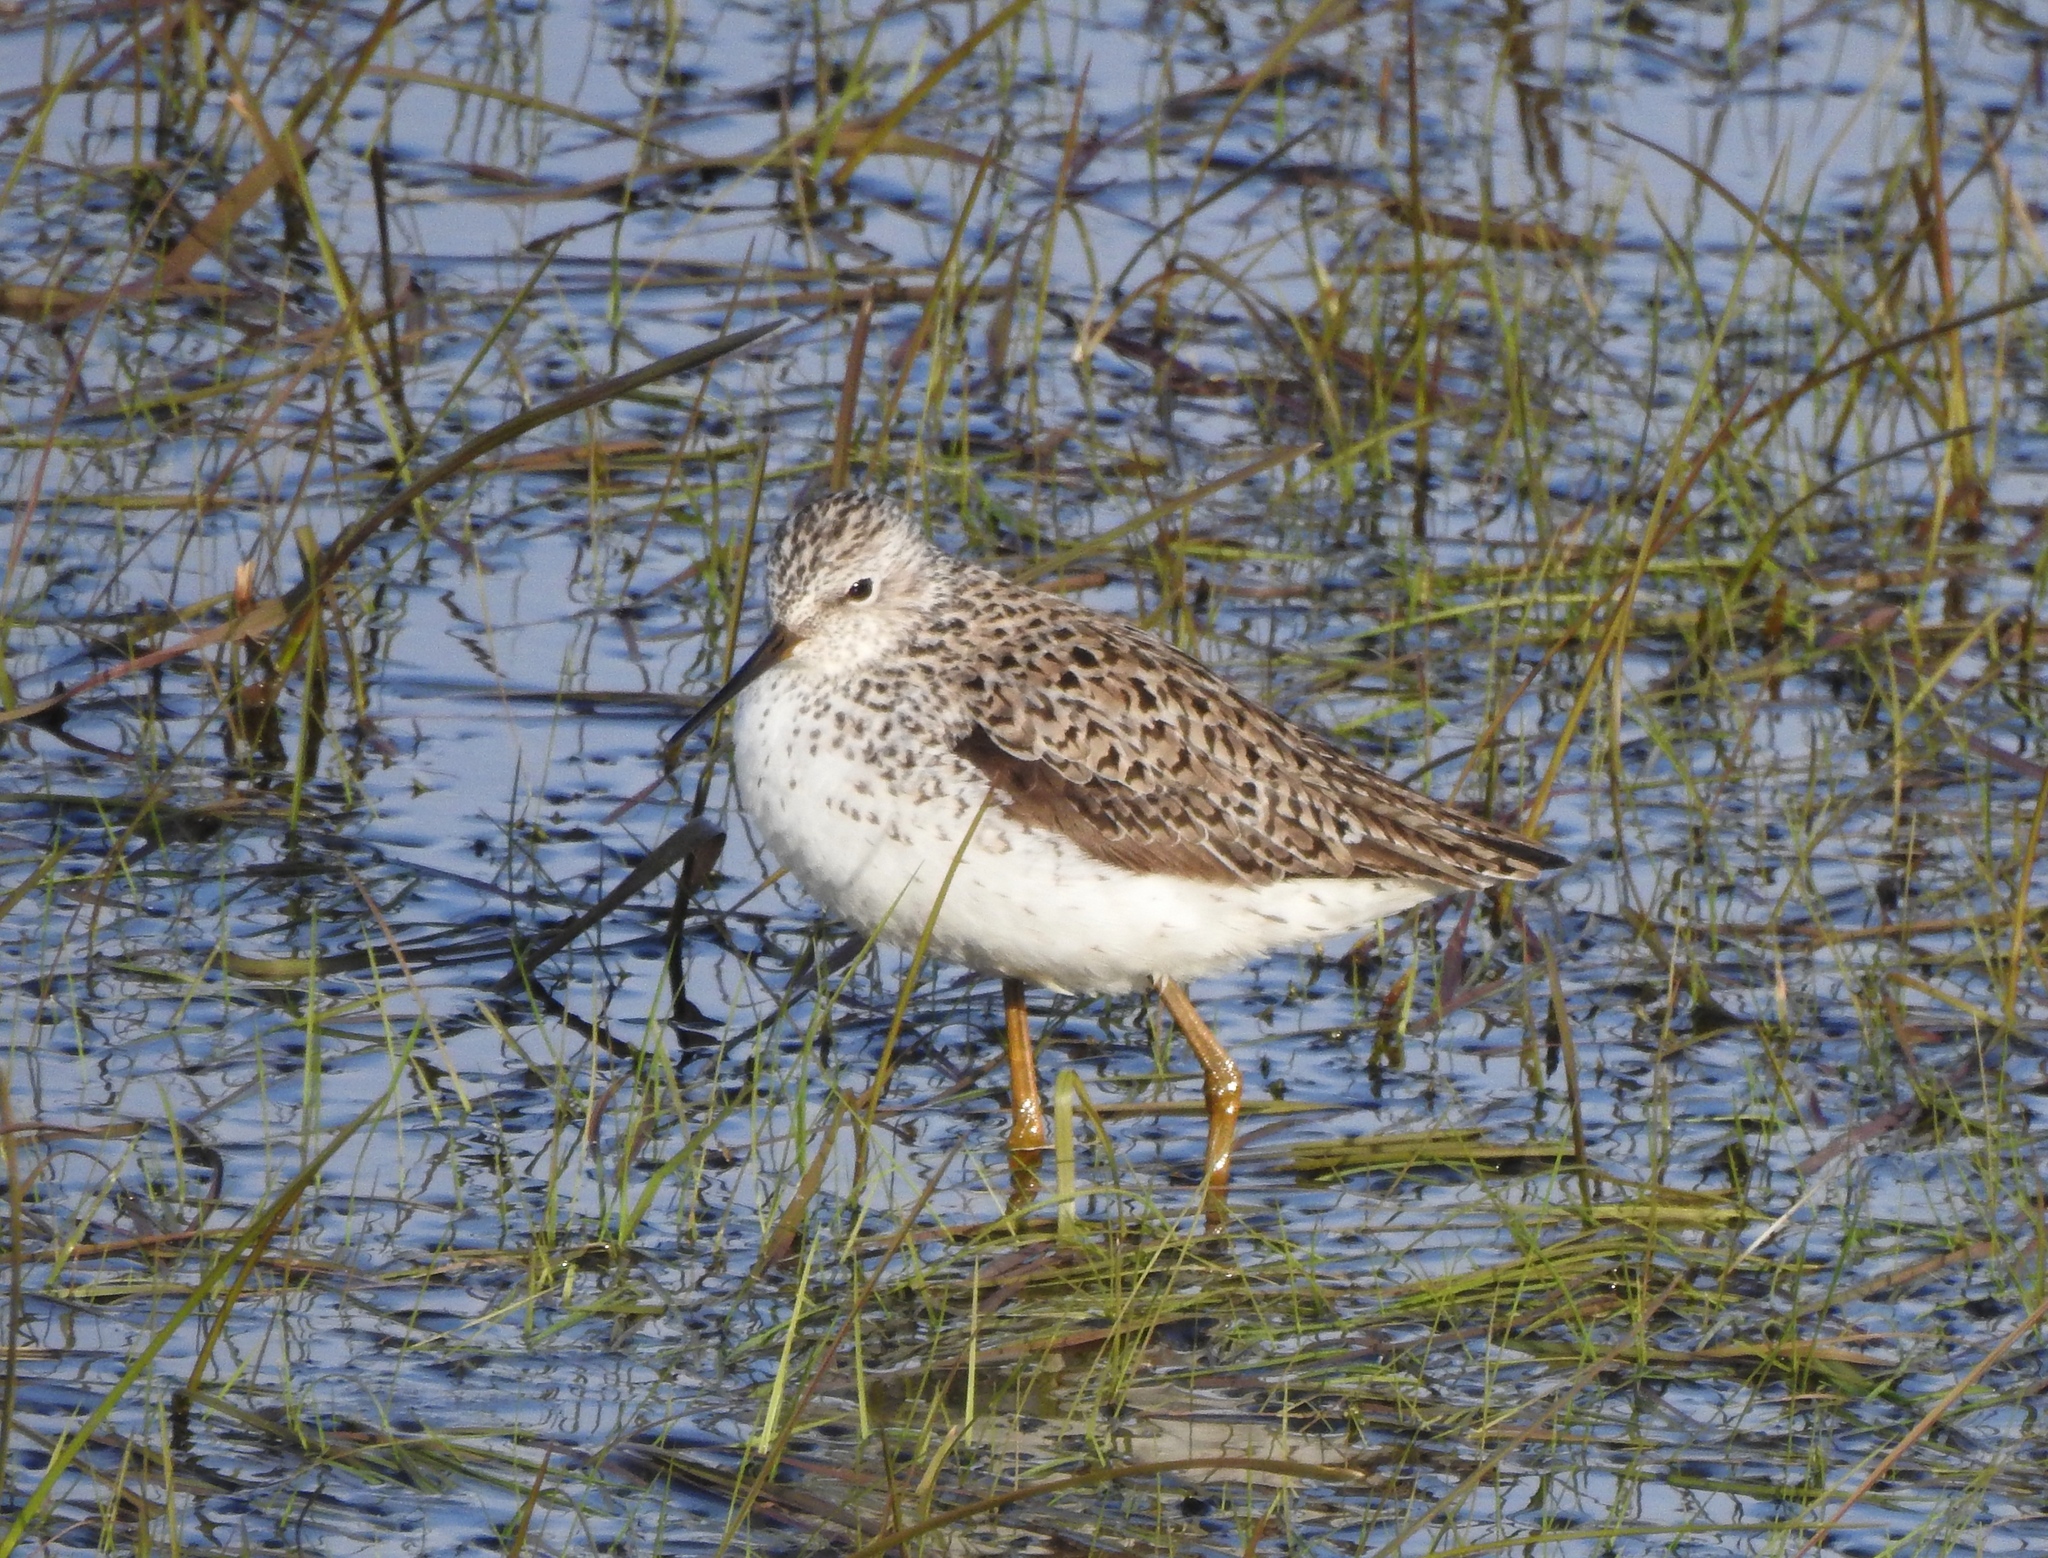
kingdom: Animalia
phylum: Chordata
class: Aves
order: Charadriiformes
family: Scolopacidae
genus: Tringa
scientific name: Tringa stagnatilis
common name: Marsh sandpiper
